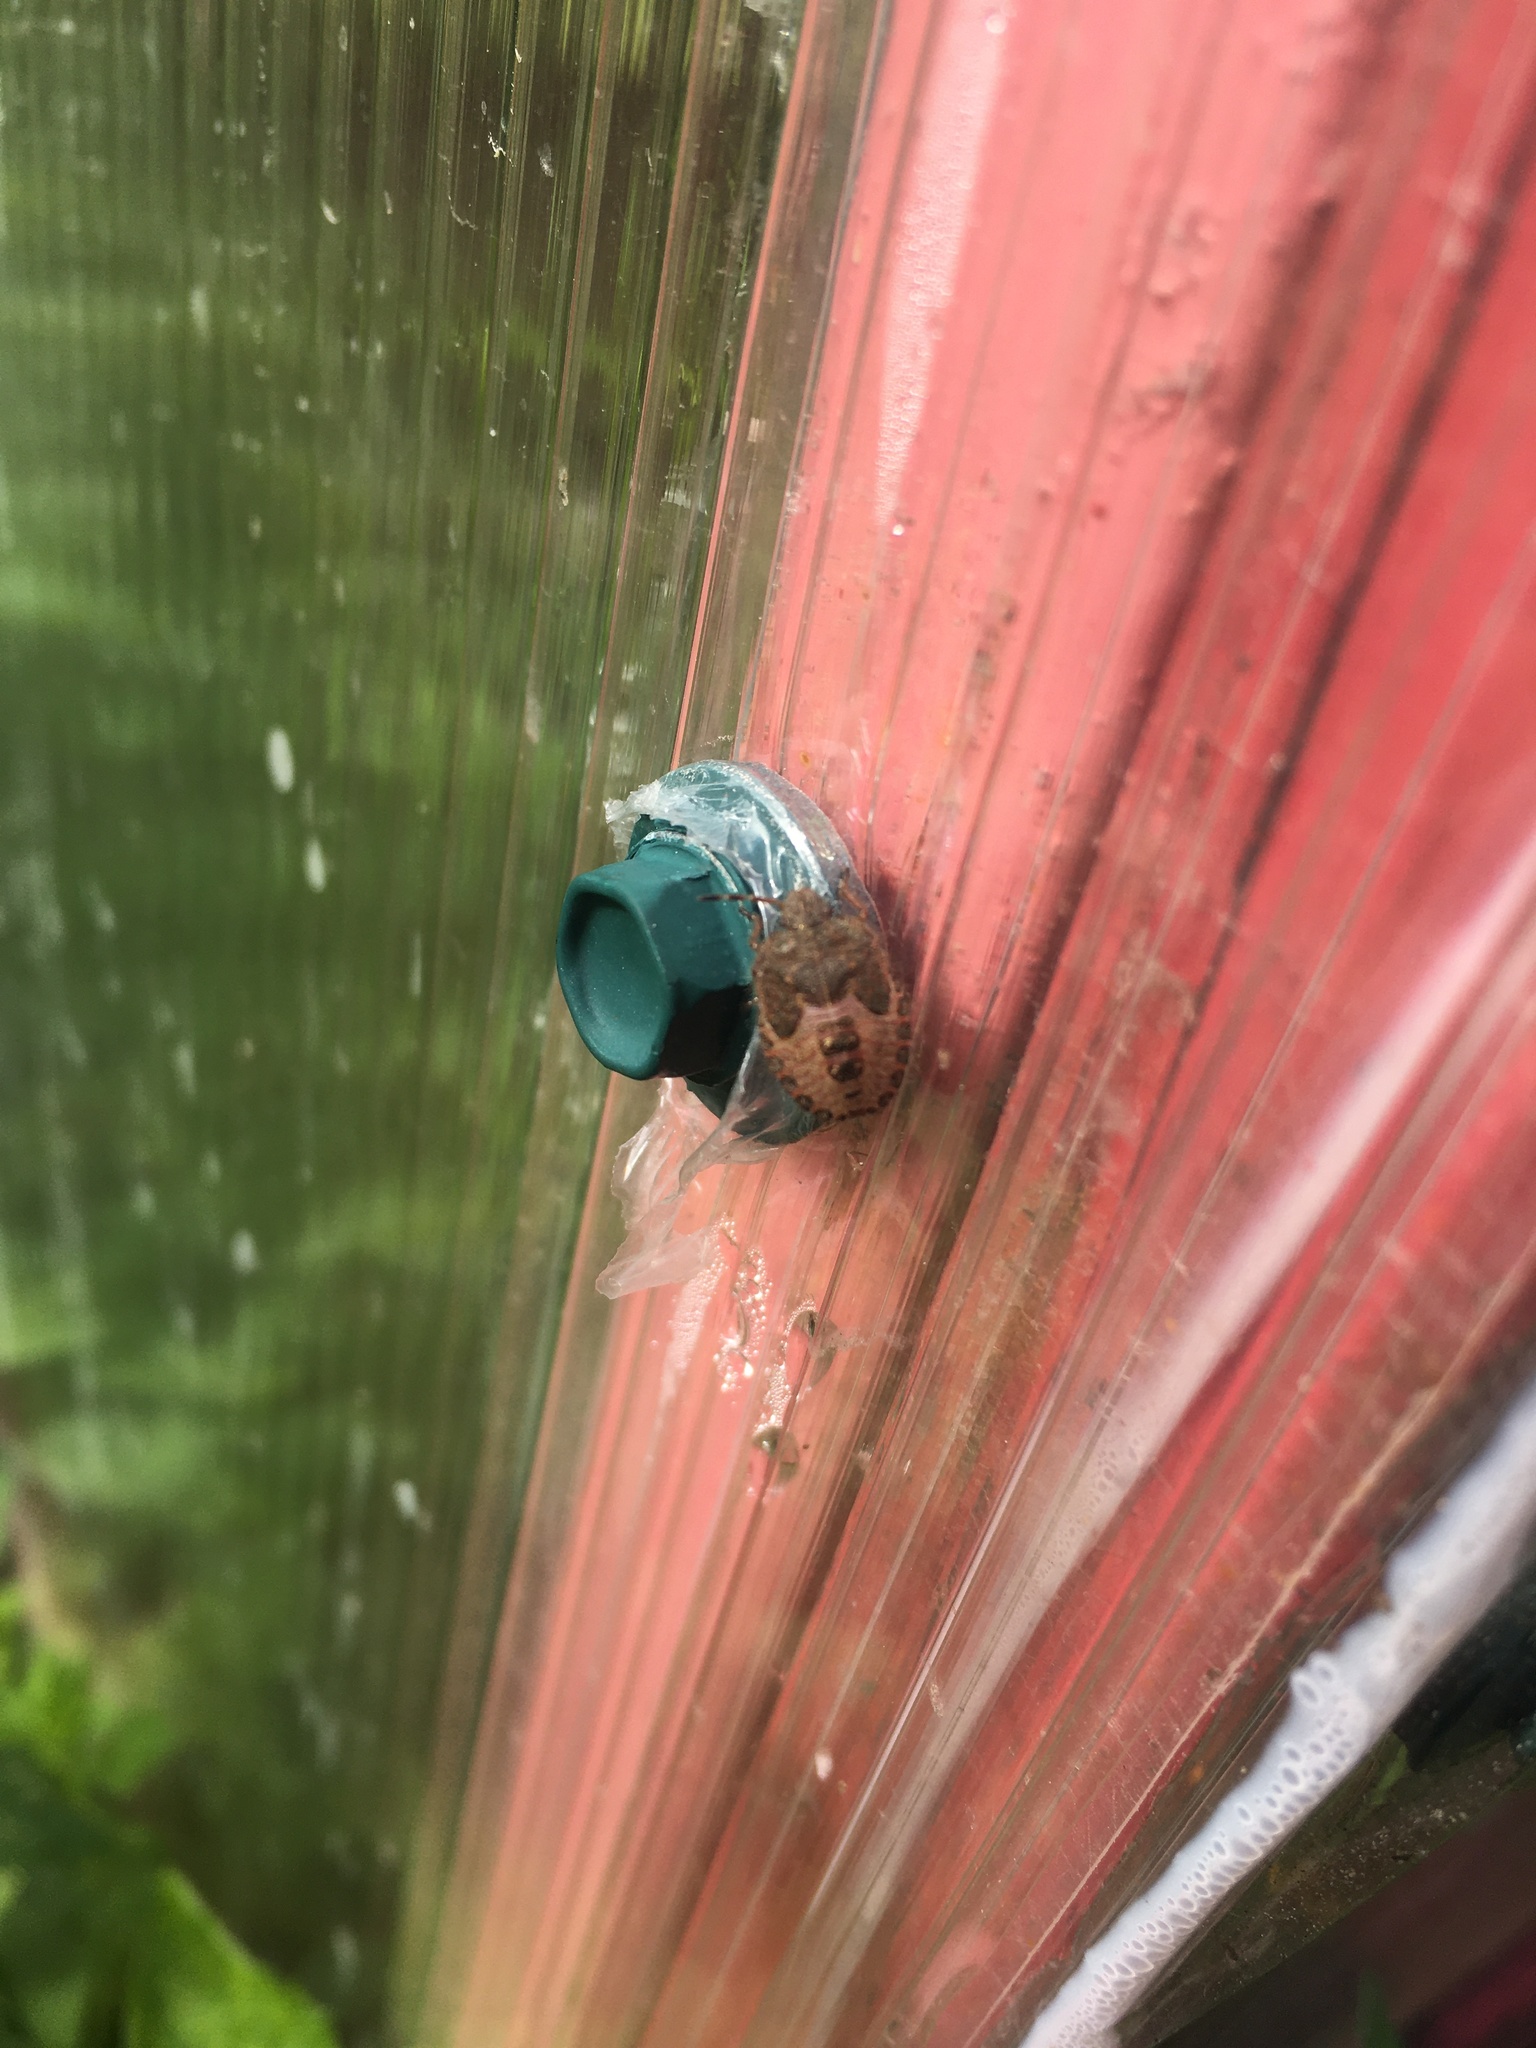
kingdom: Animalia
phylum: Arthropoda
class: Insecta
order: Hemiptera
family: Pentatomidae
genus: Dolycoris
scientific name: Dolycoris baccarum
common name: Sloe bug
